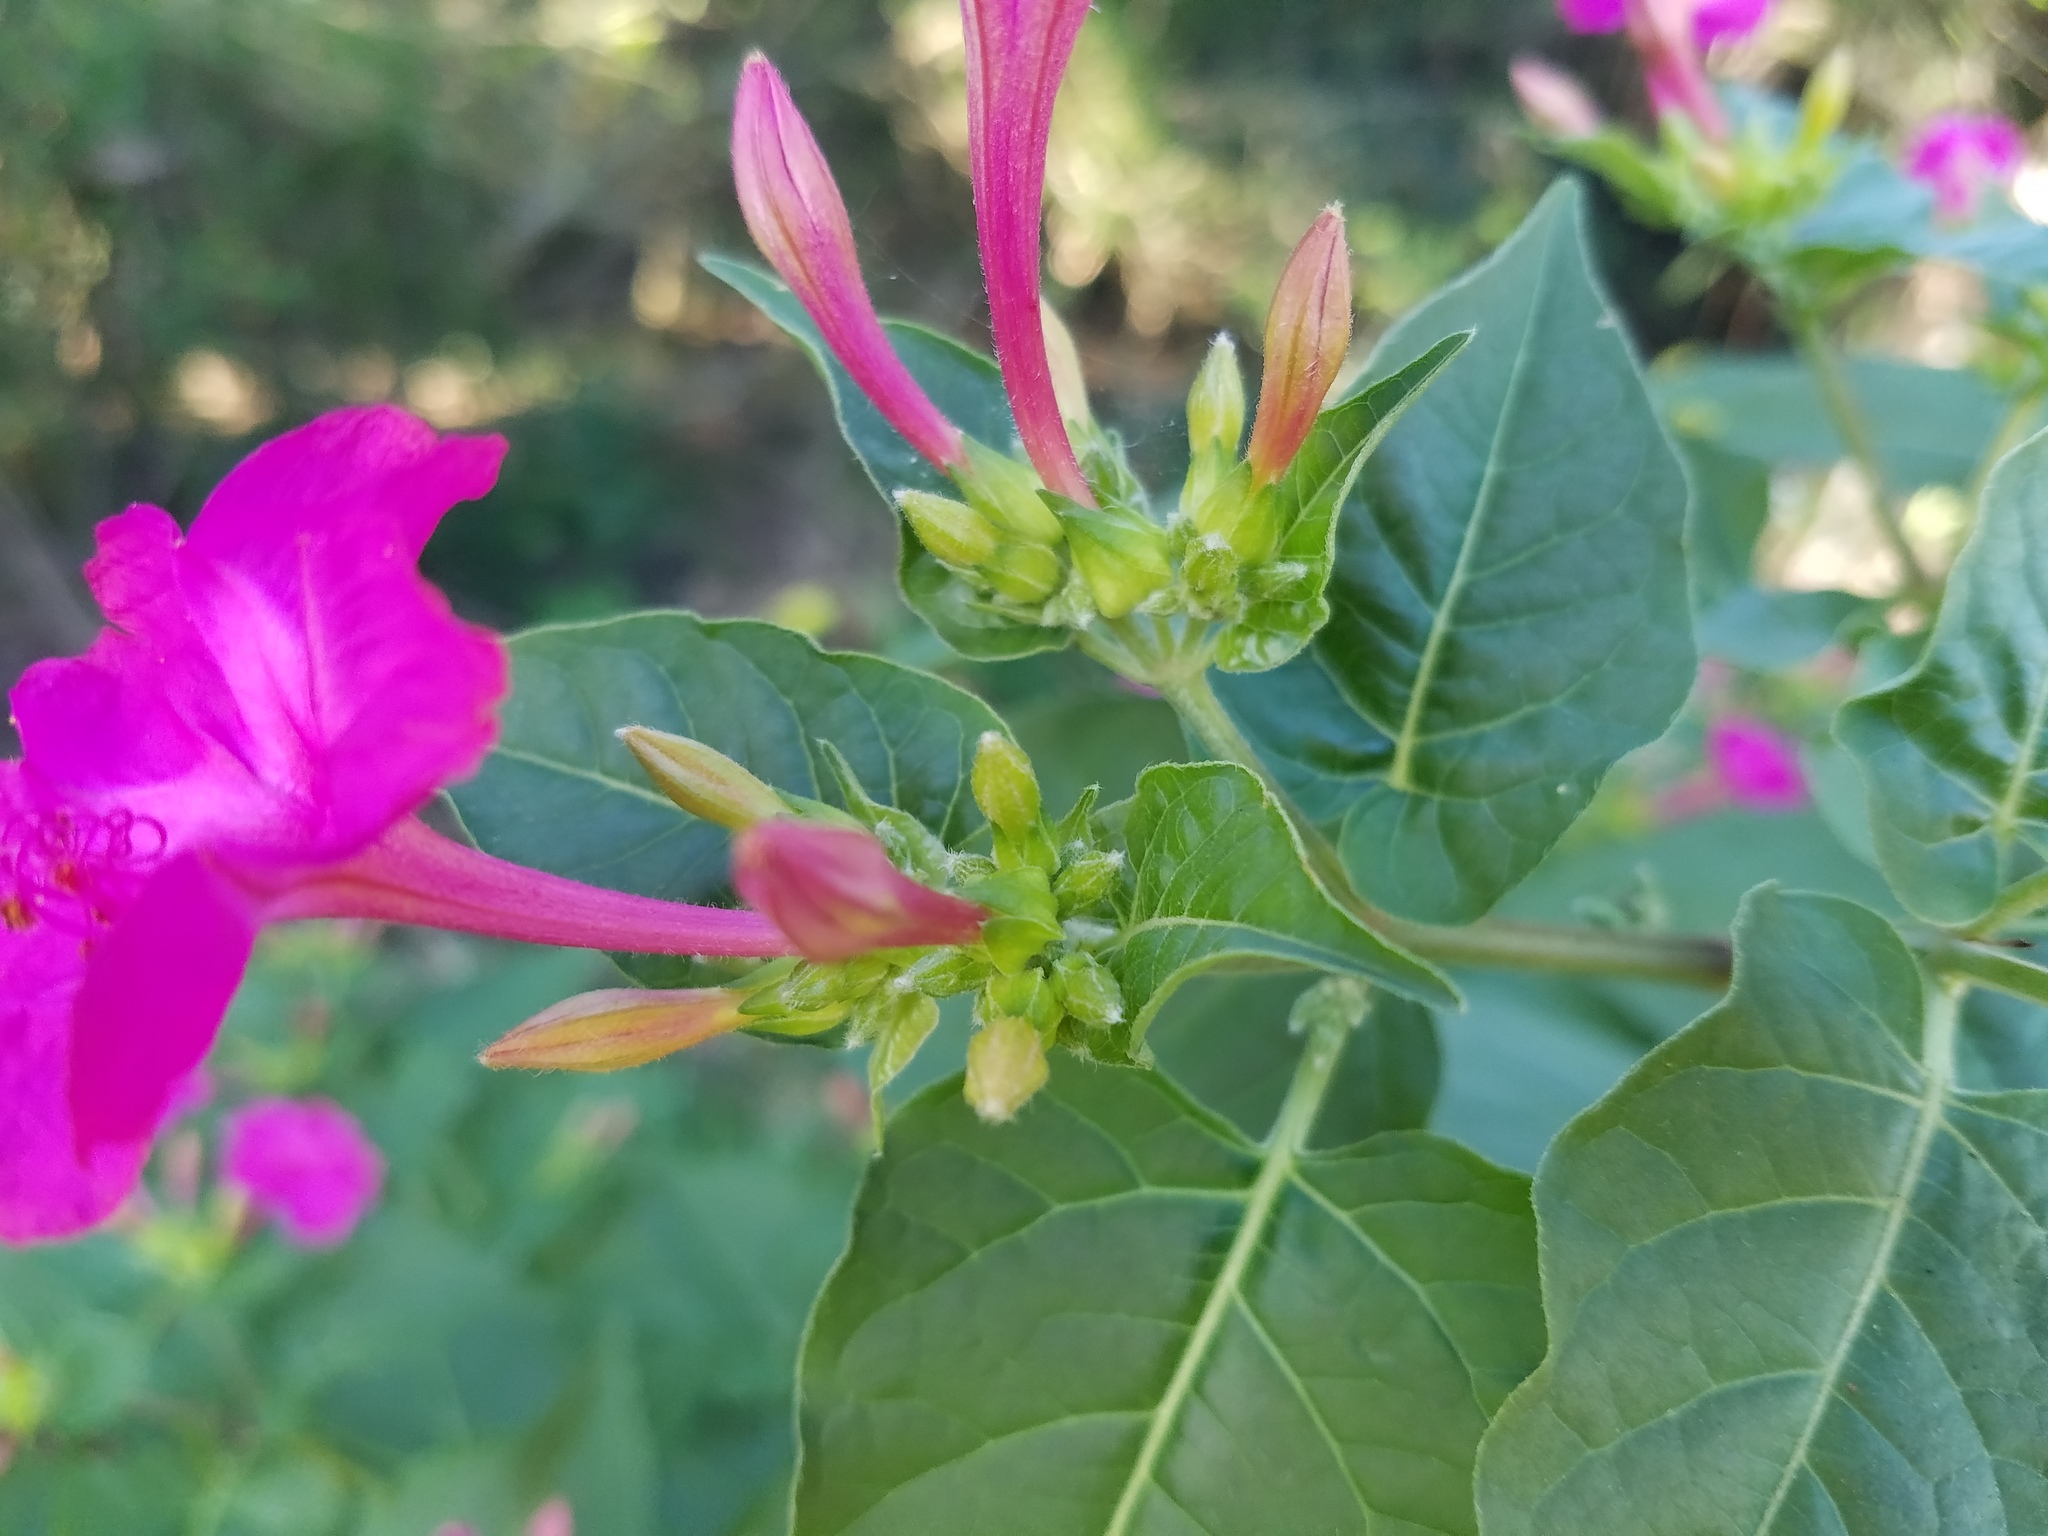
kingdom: Plantae
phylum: Tracheophyta
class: Magnoliopsida
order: Caryophyllales
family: Nyctaginaceae
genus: Mirabilis
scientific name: Mirabilis jalapa
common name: Marvel-of-peru
